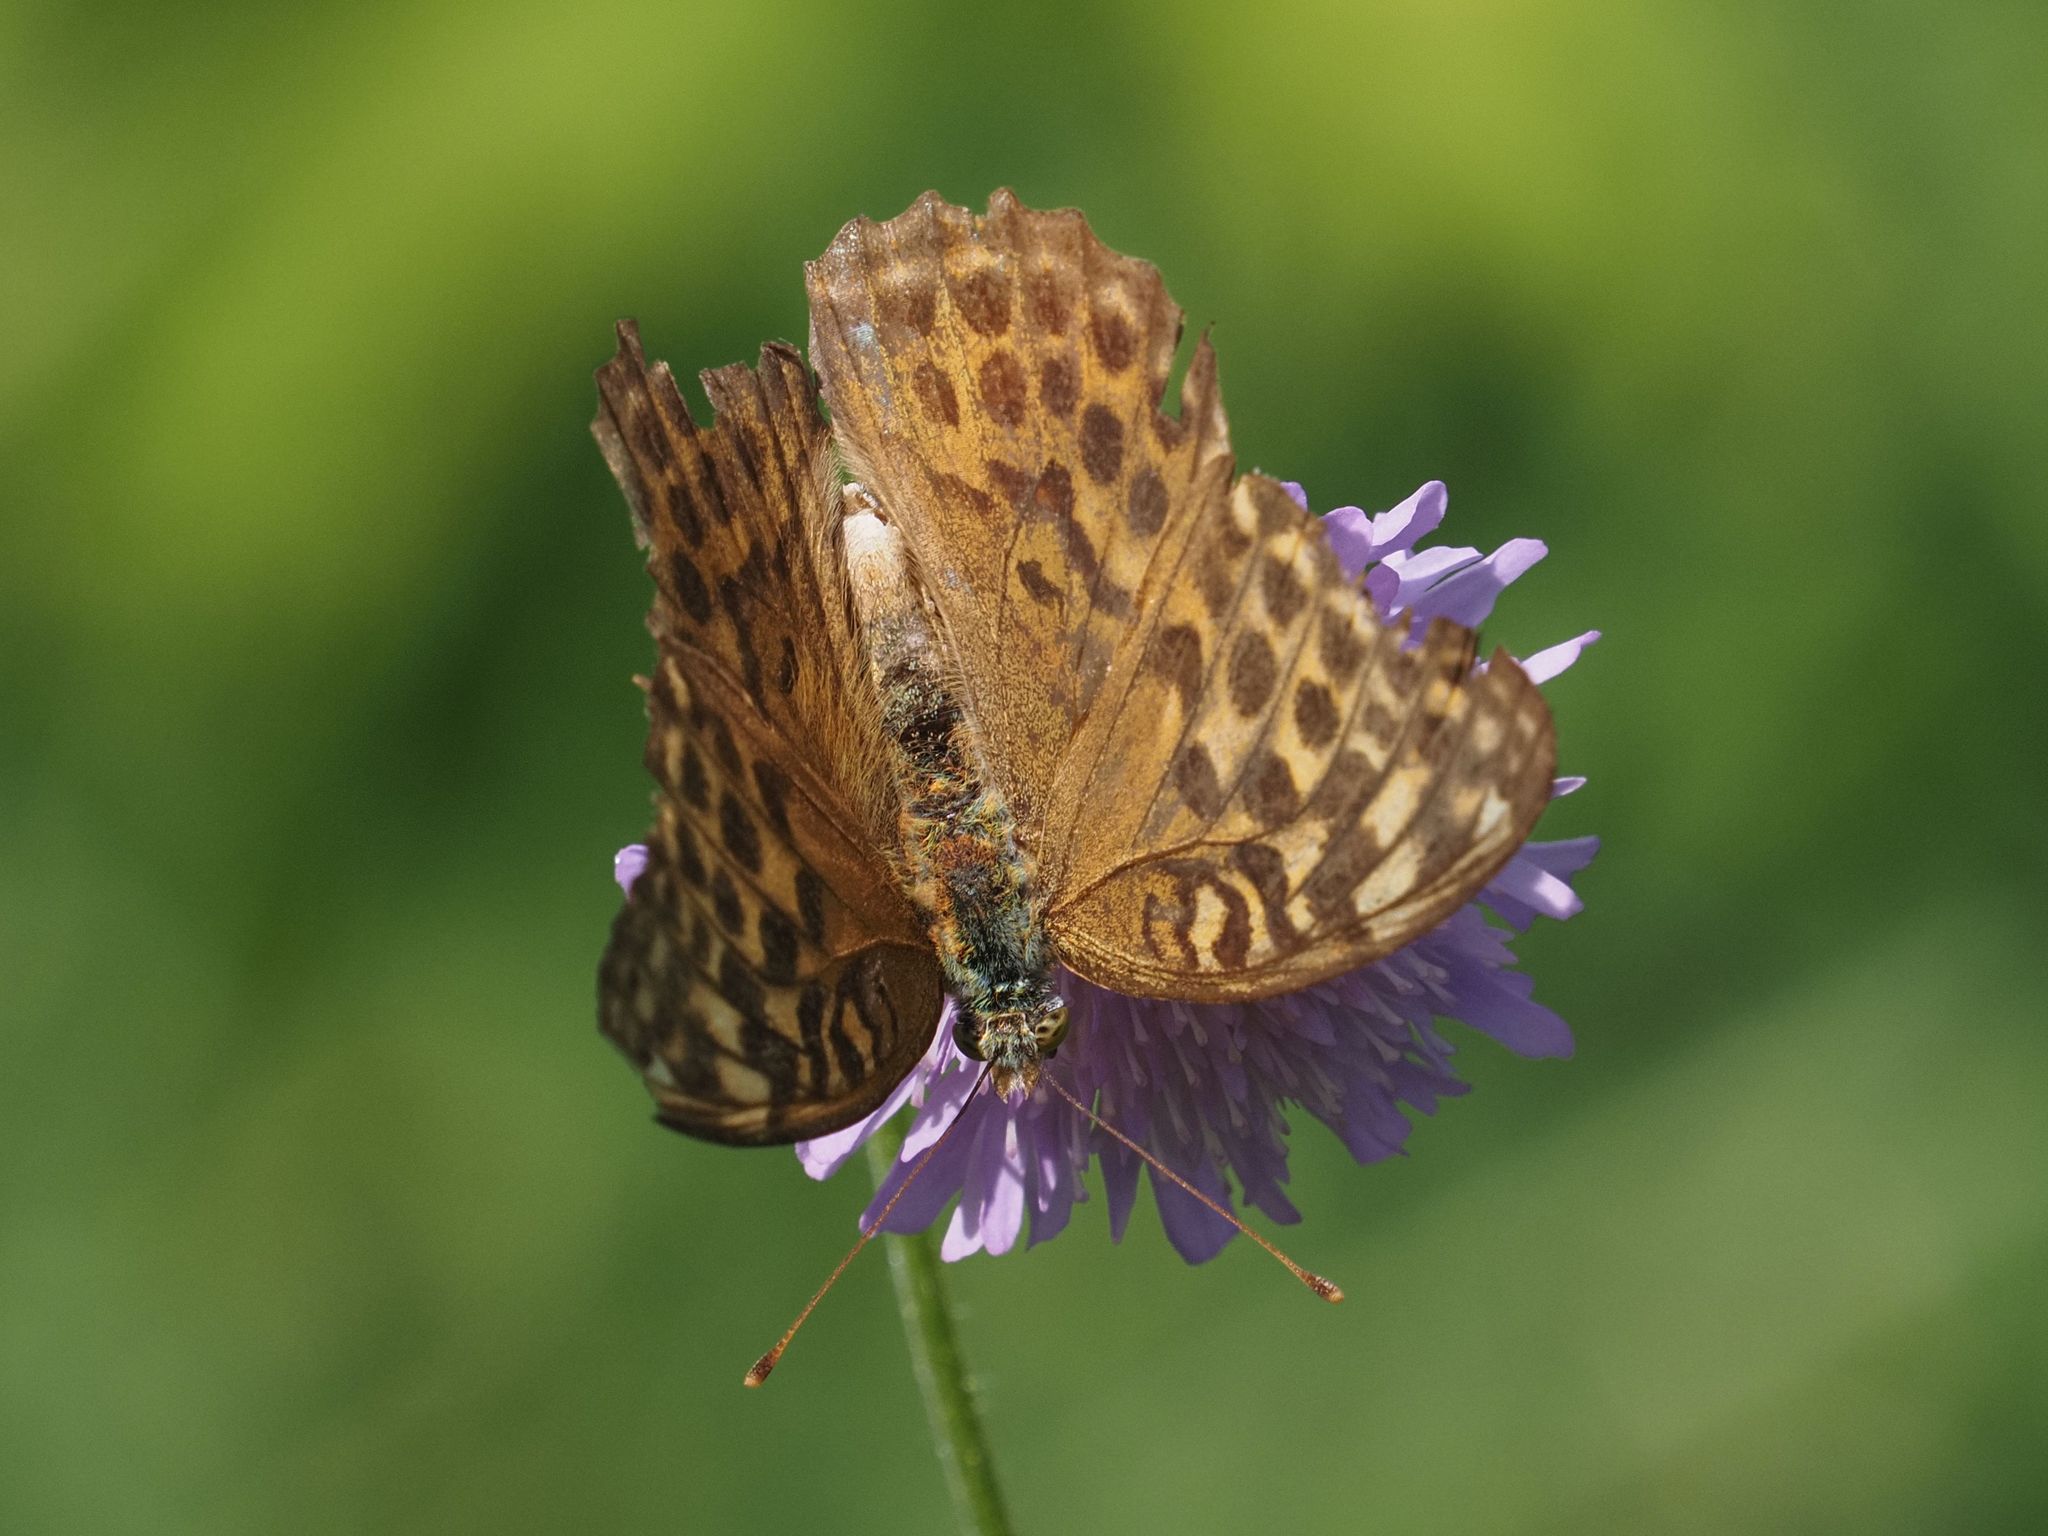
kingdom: Animalia
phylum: Arthropoda
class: Insecta
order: Lepidoptera
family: Nymphalidae
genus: Argynnis
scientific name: Argynnis paphia
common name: Silver-washed fritillary
